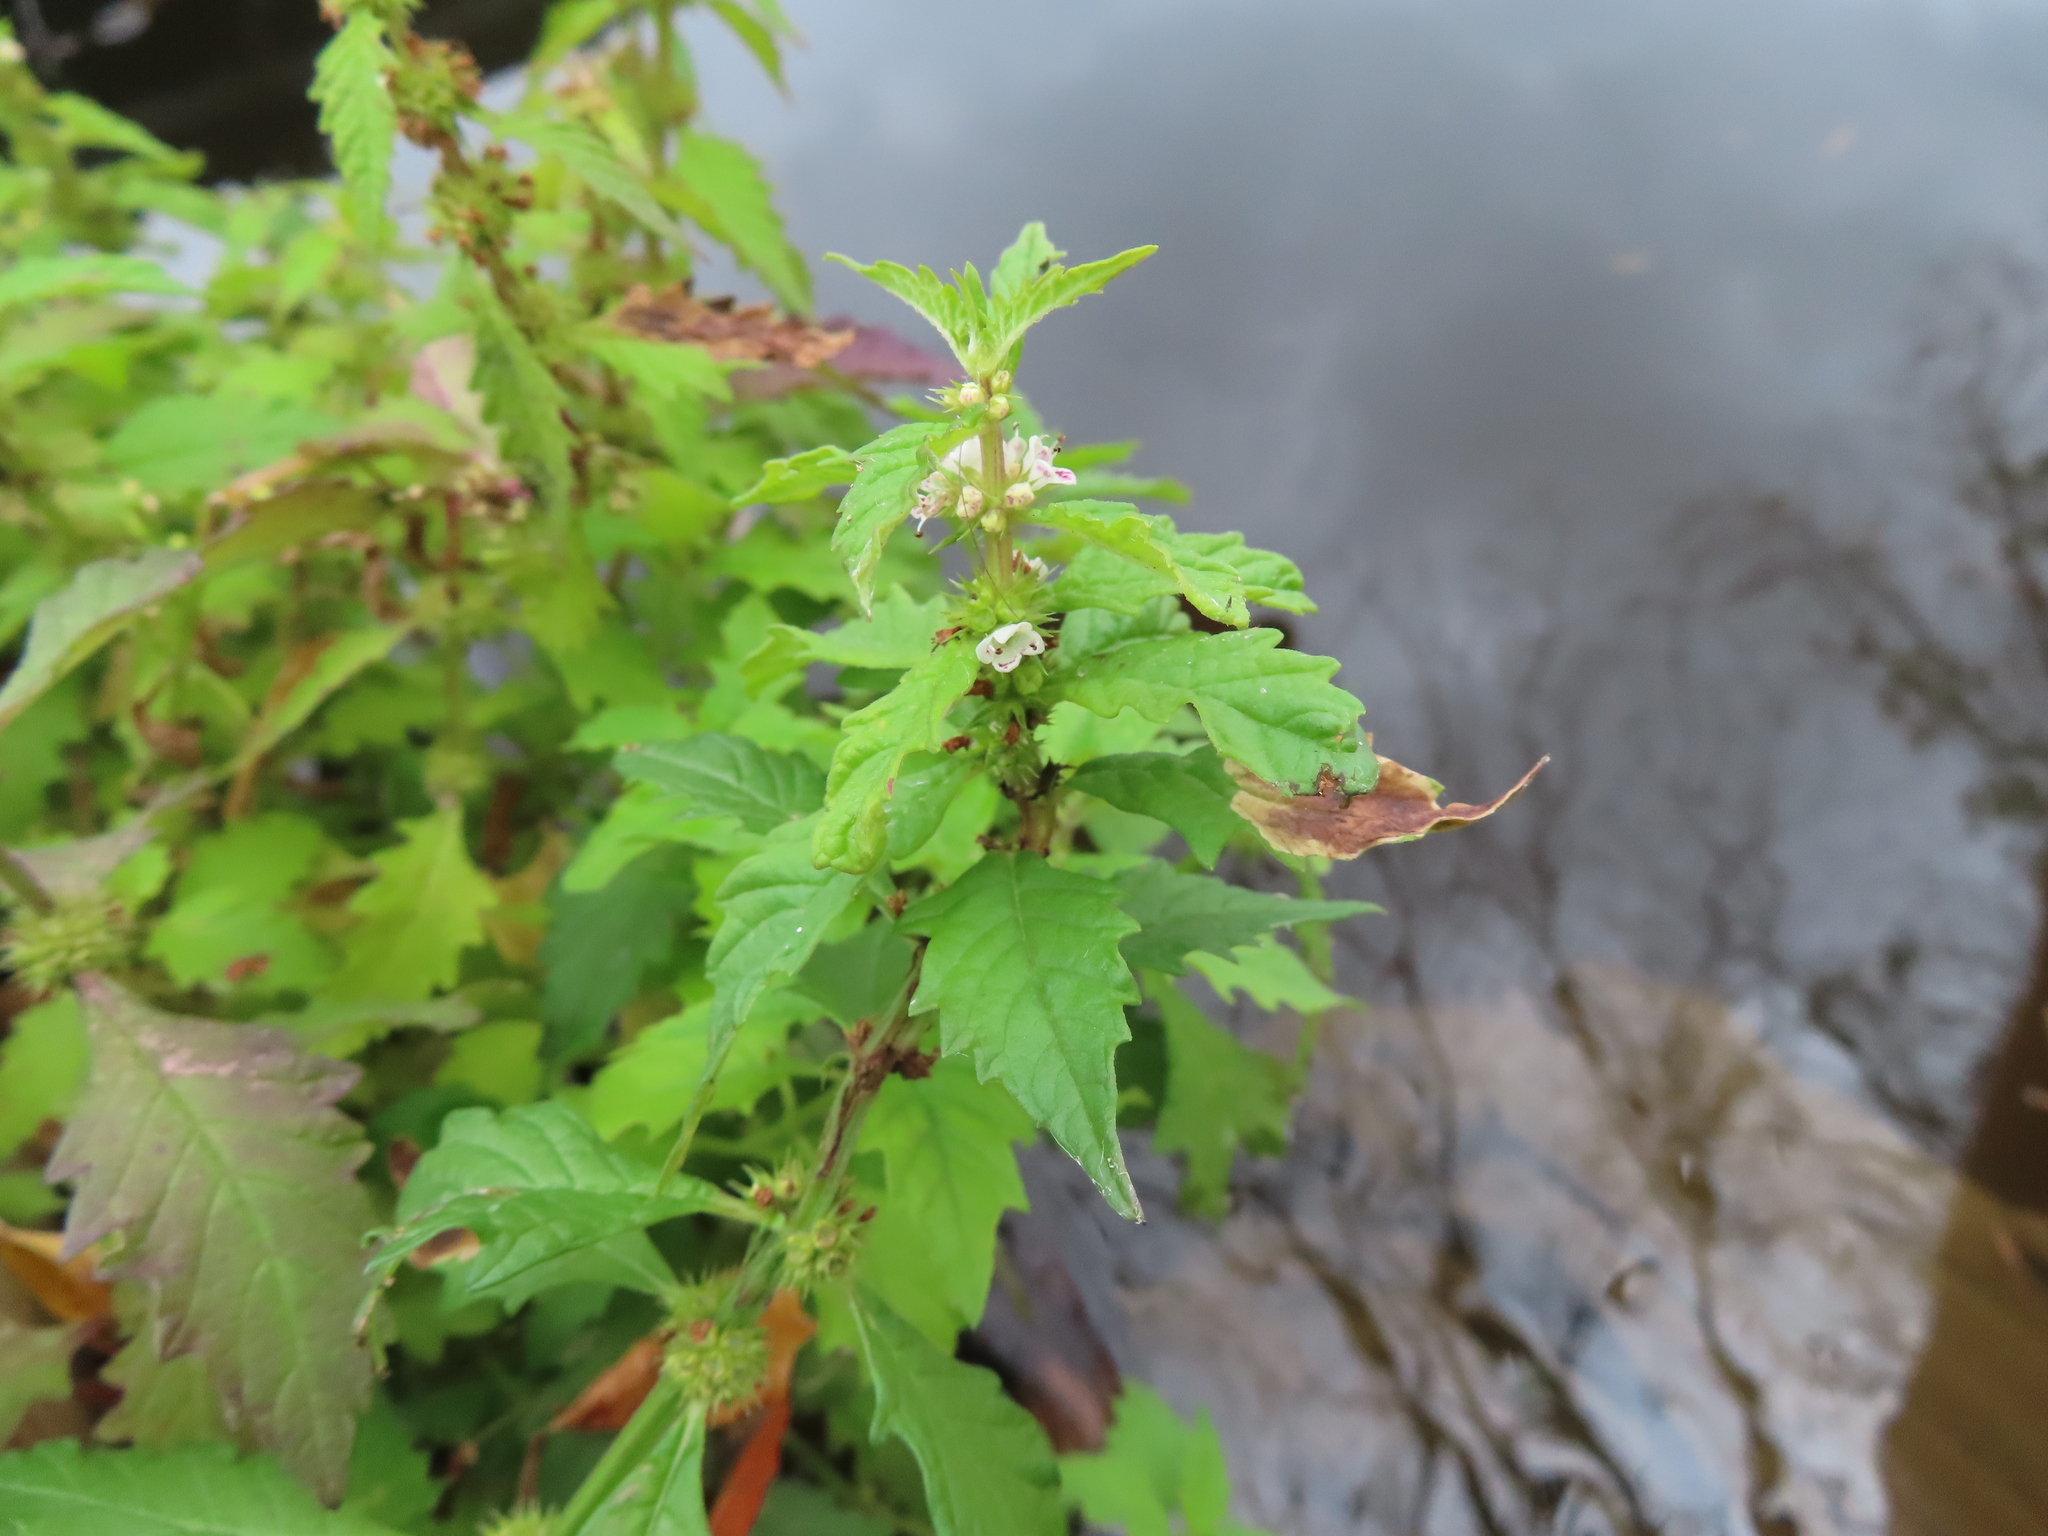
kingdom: Plantae
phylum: Tracheophyta
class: Magnoliopsida
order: Lamiales
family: Lamiaceae
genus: Lycopus
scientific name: Lycopus europaeus
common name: European bugleweed
